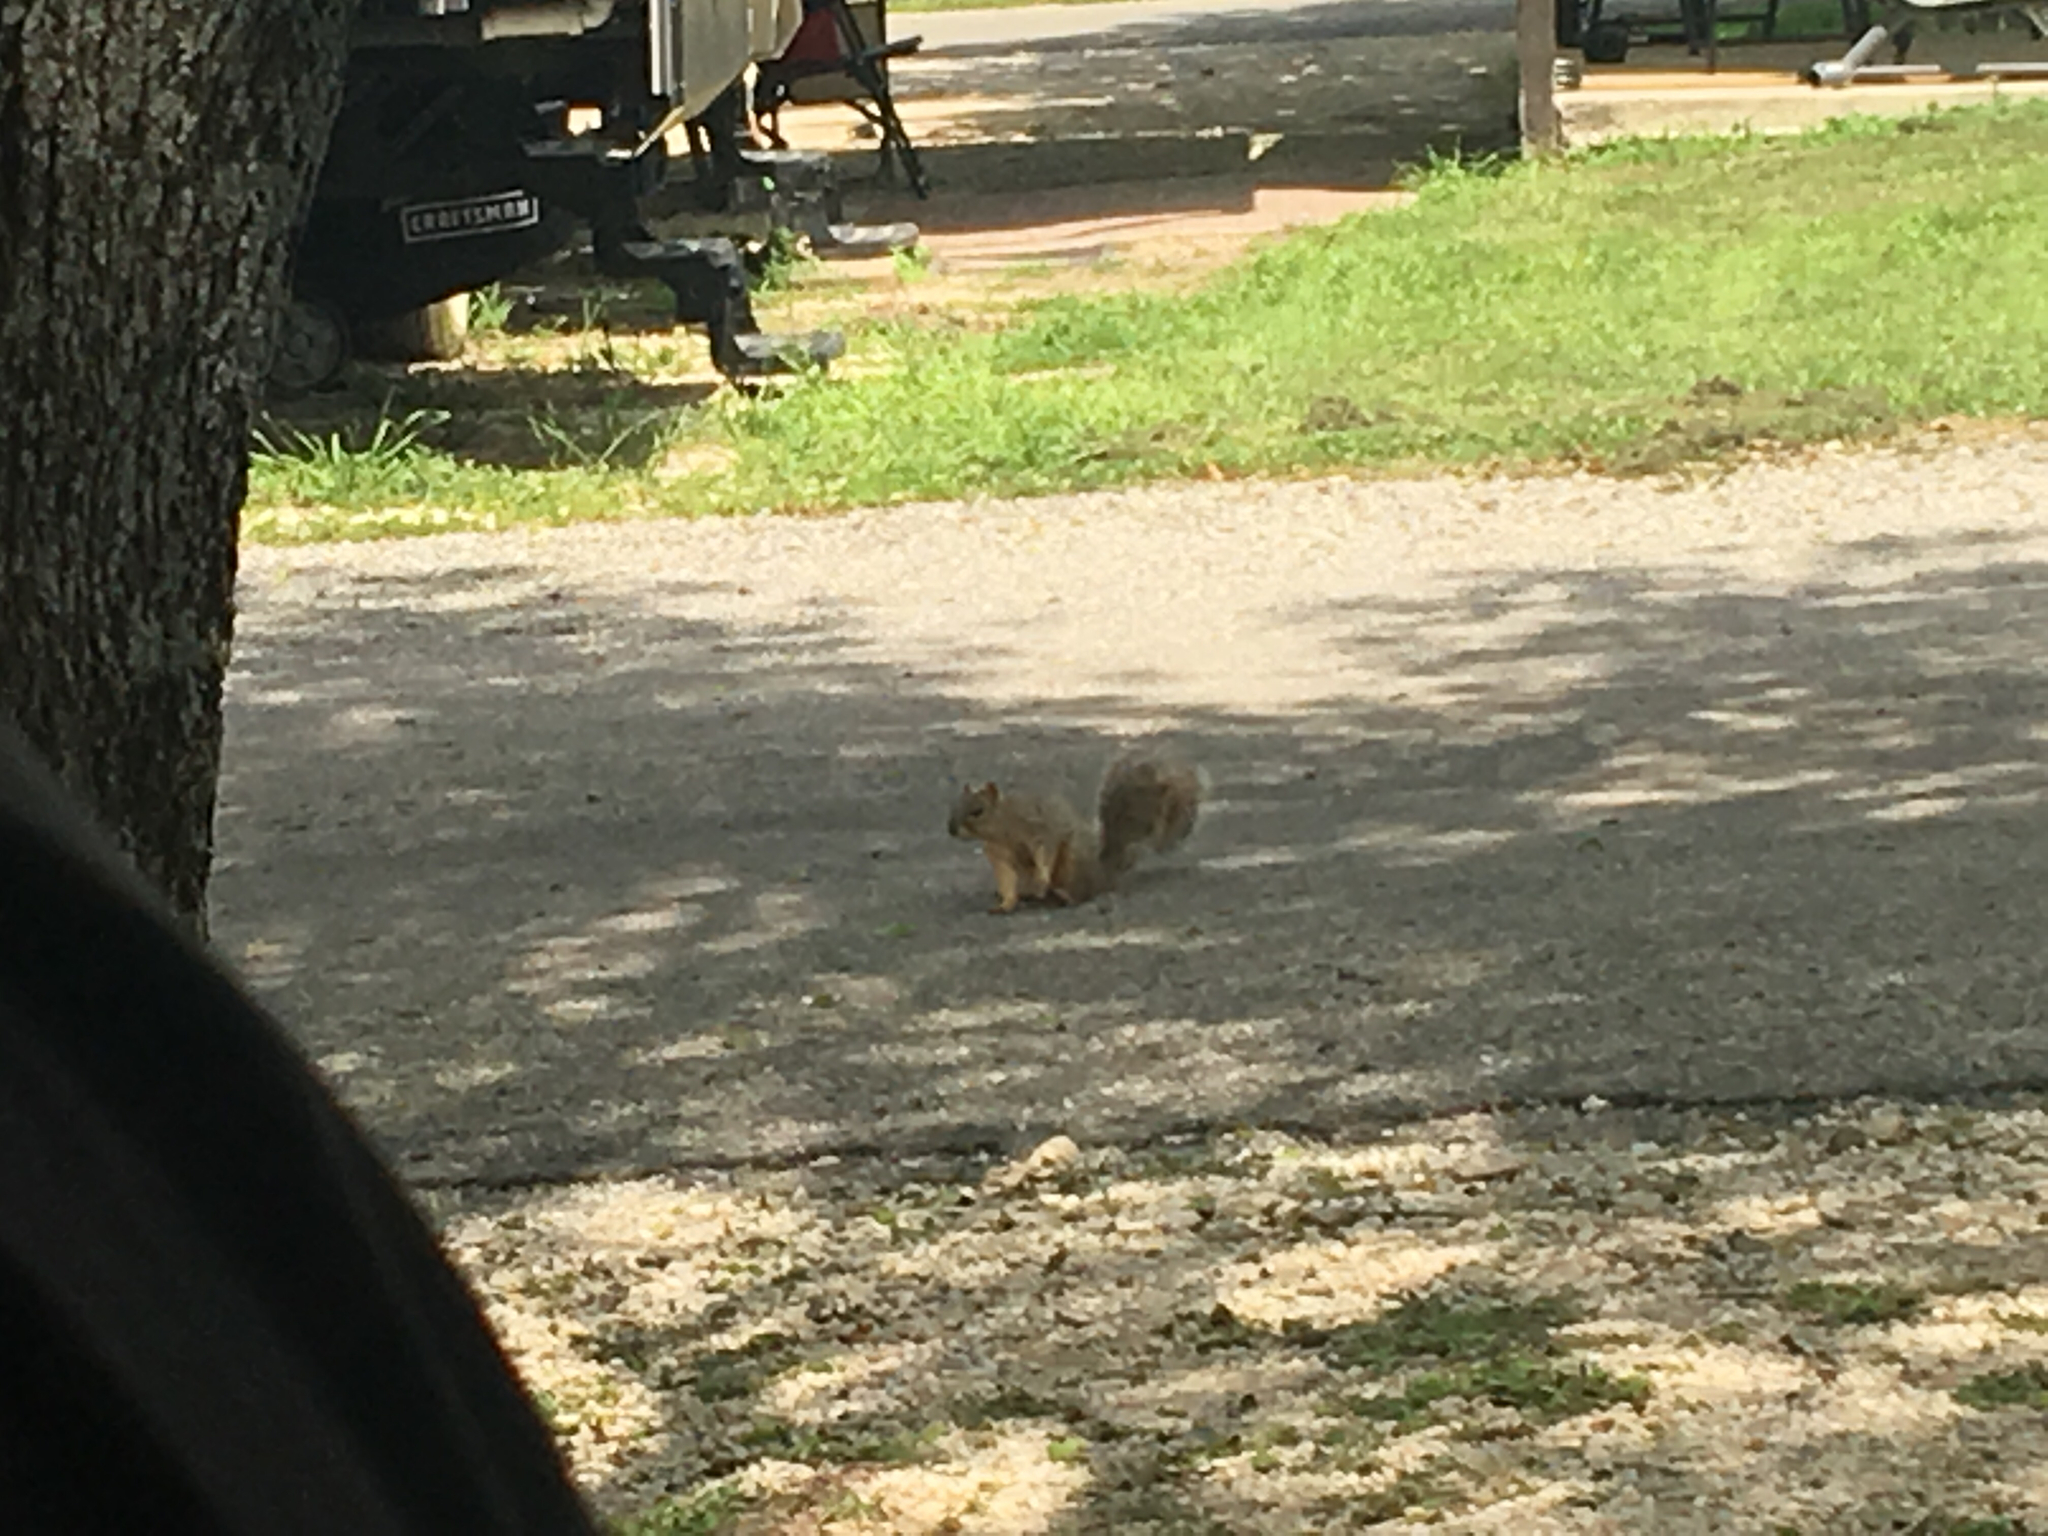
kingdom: Animalia
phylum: Chordata
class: Mammalia
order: Rodentia
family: Sciuridae
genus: Sciurus
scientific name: Sciurus niger
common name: Fox squirrel
